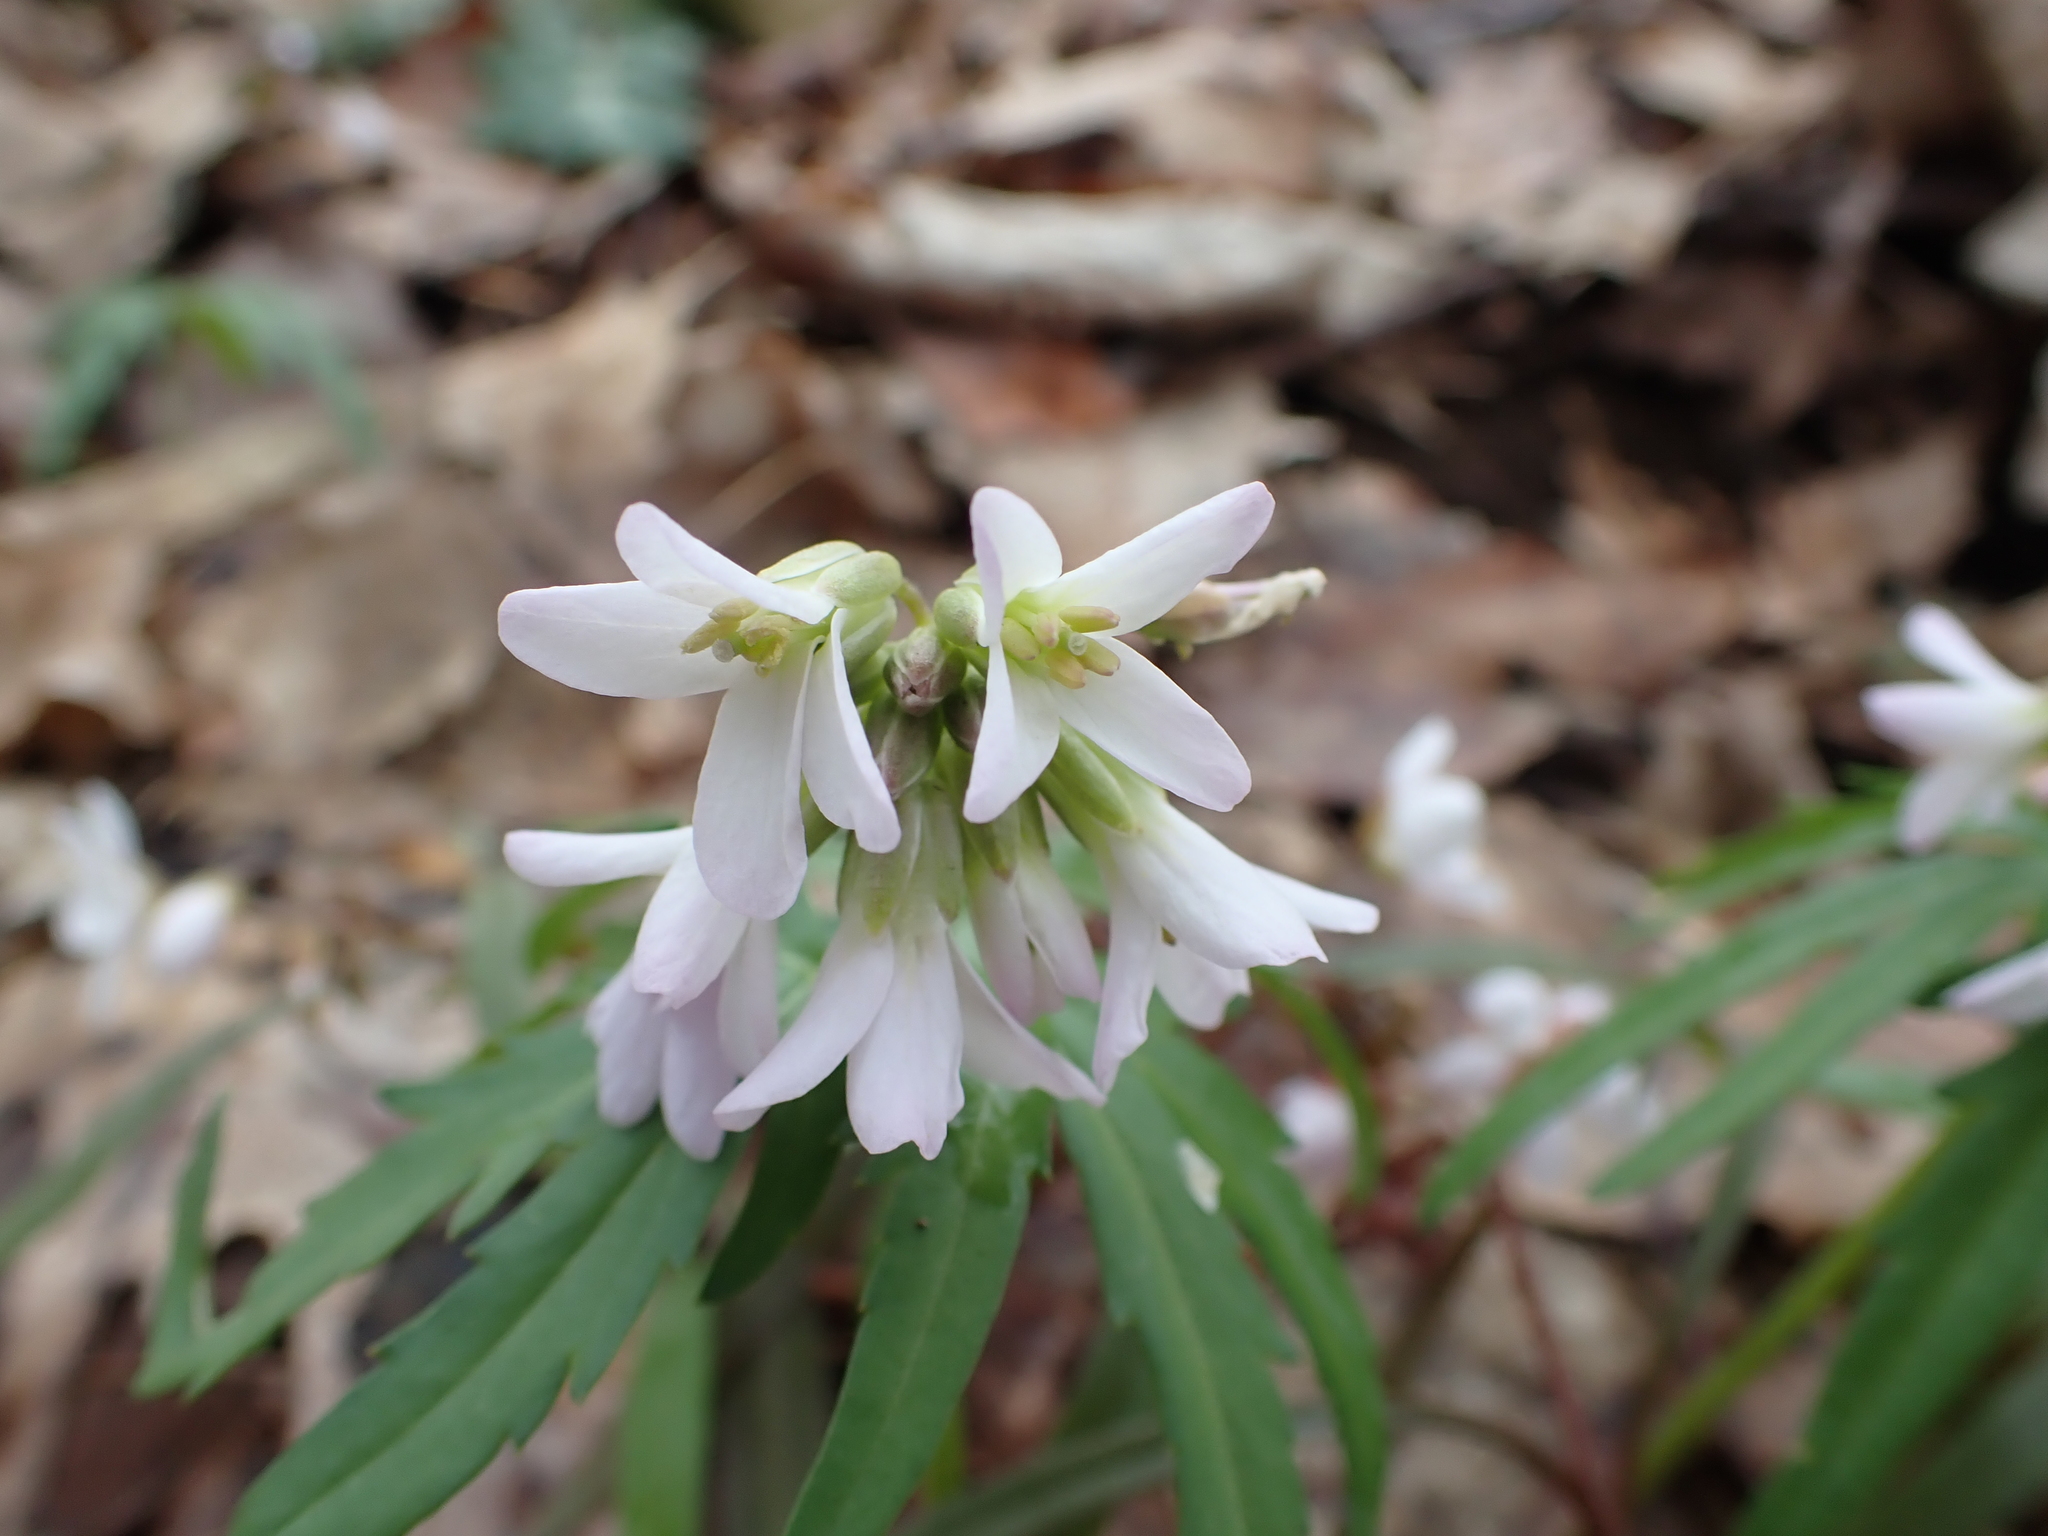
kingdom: Plantae
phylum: Tracheophyta
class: Magnoliopsida
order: Brassicales
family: Brassicaceae
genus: Cardamine
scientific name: Cardamine concatenata
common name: Cut-leaf toothcup
